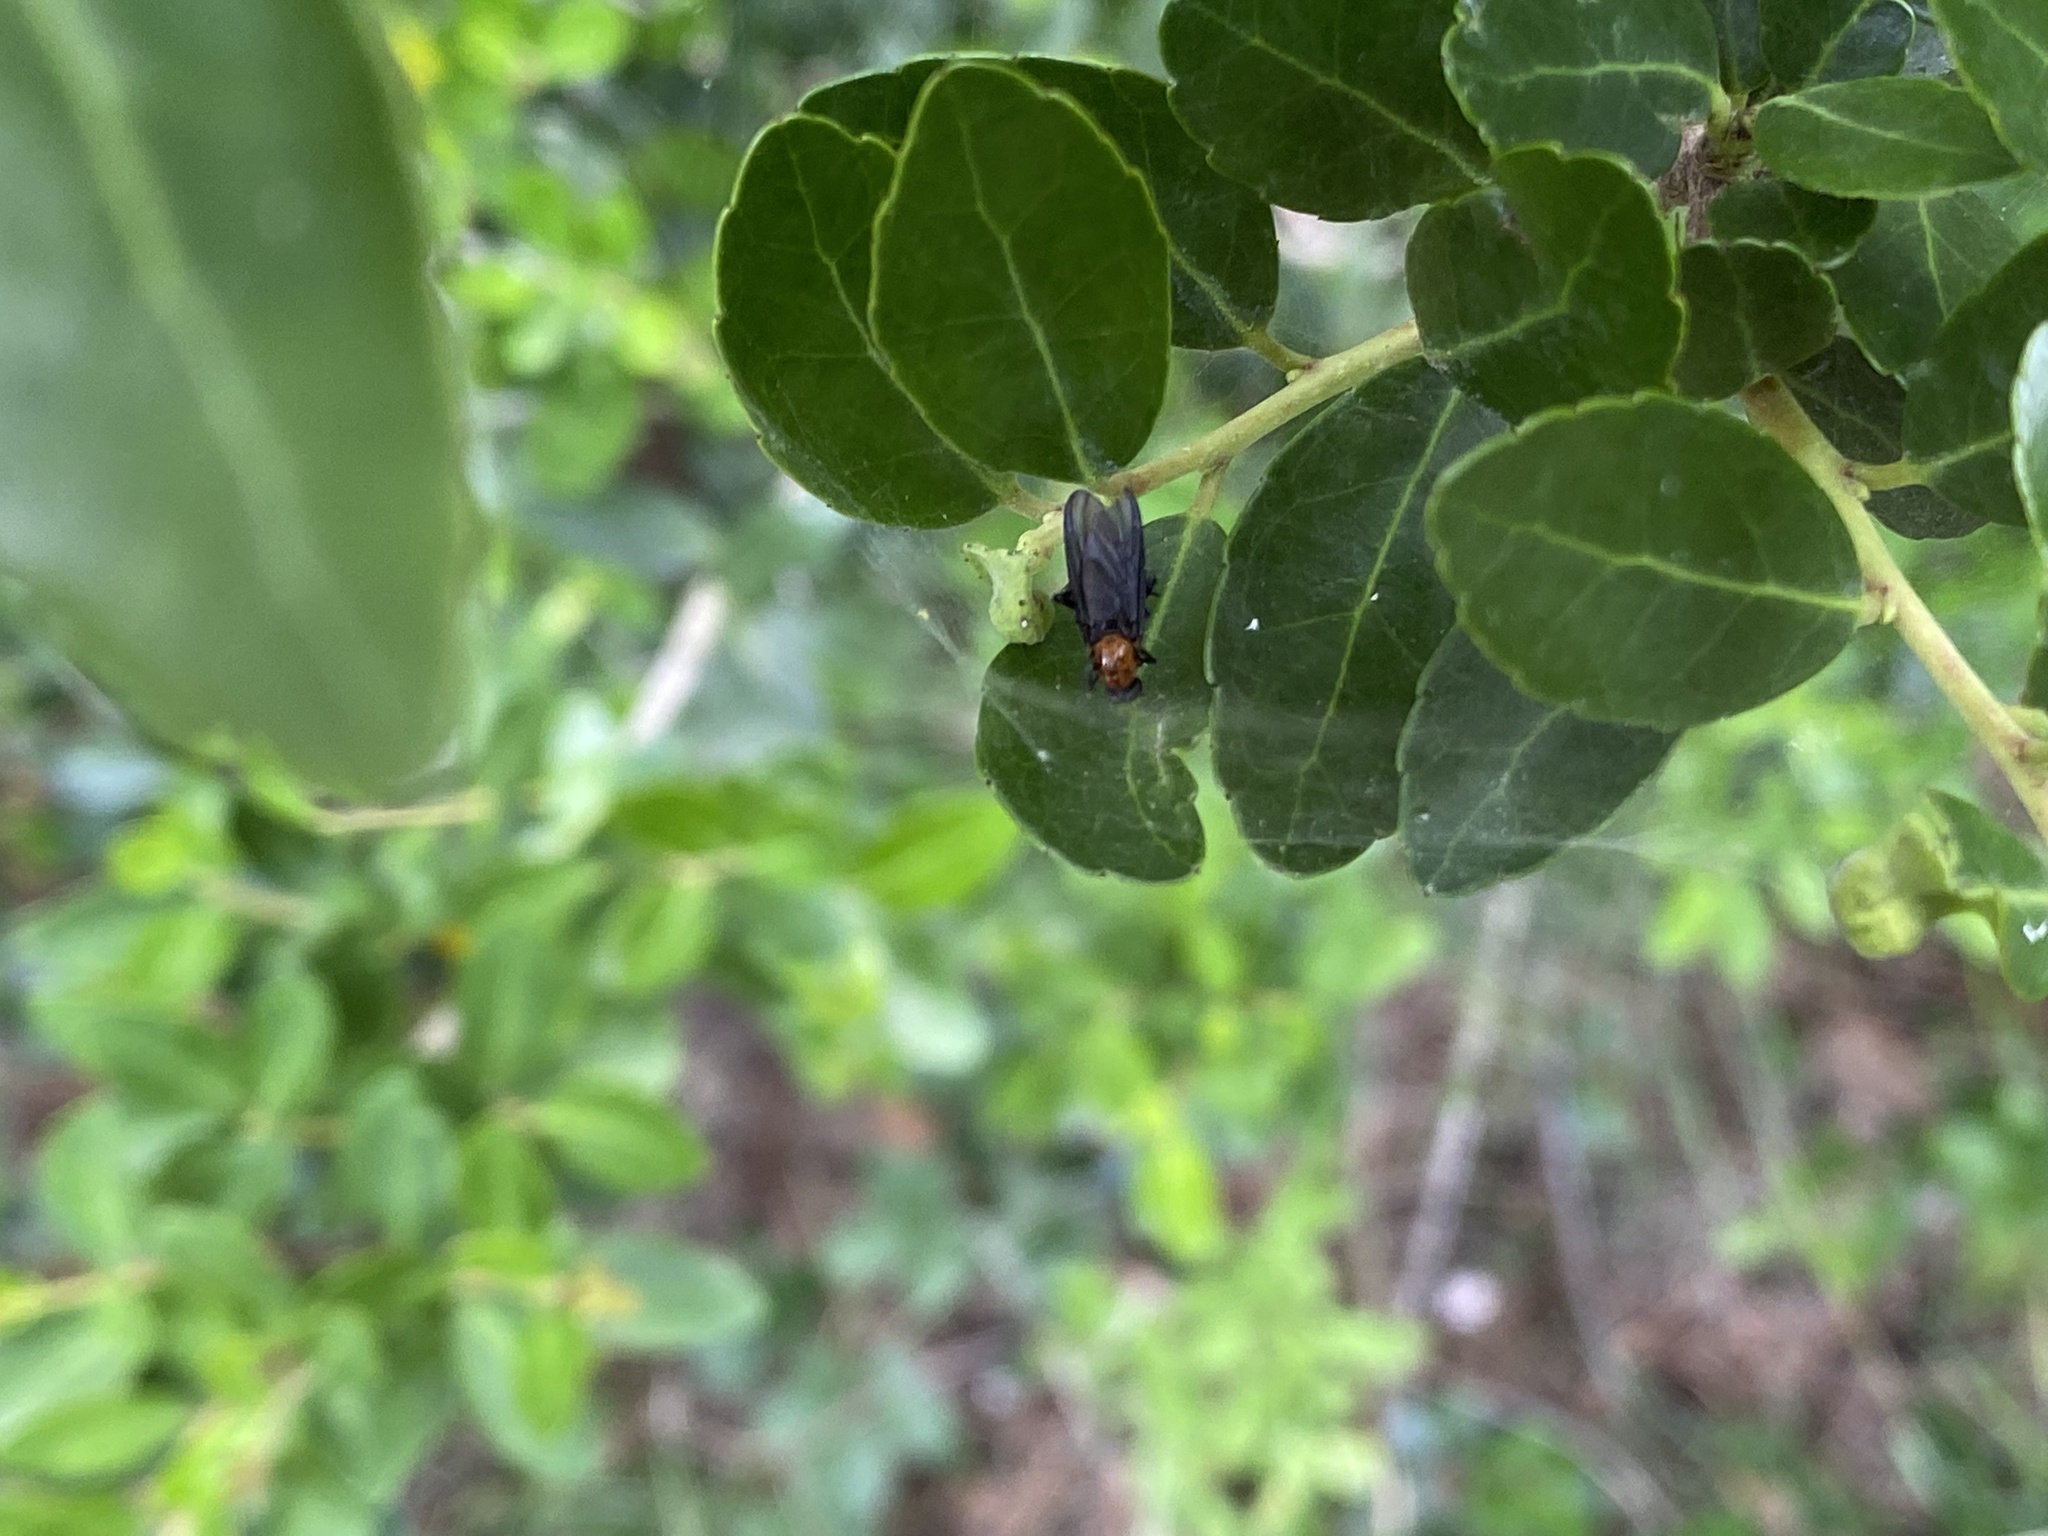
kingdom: Animalia
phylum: Arthropoda
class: Insecta
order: Diptera
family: Bibionidae
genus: Plecia
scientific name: Plecia nearctica
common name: March fly
